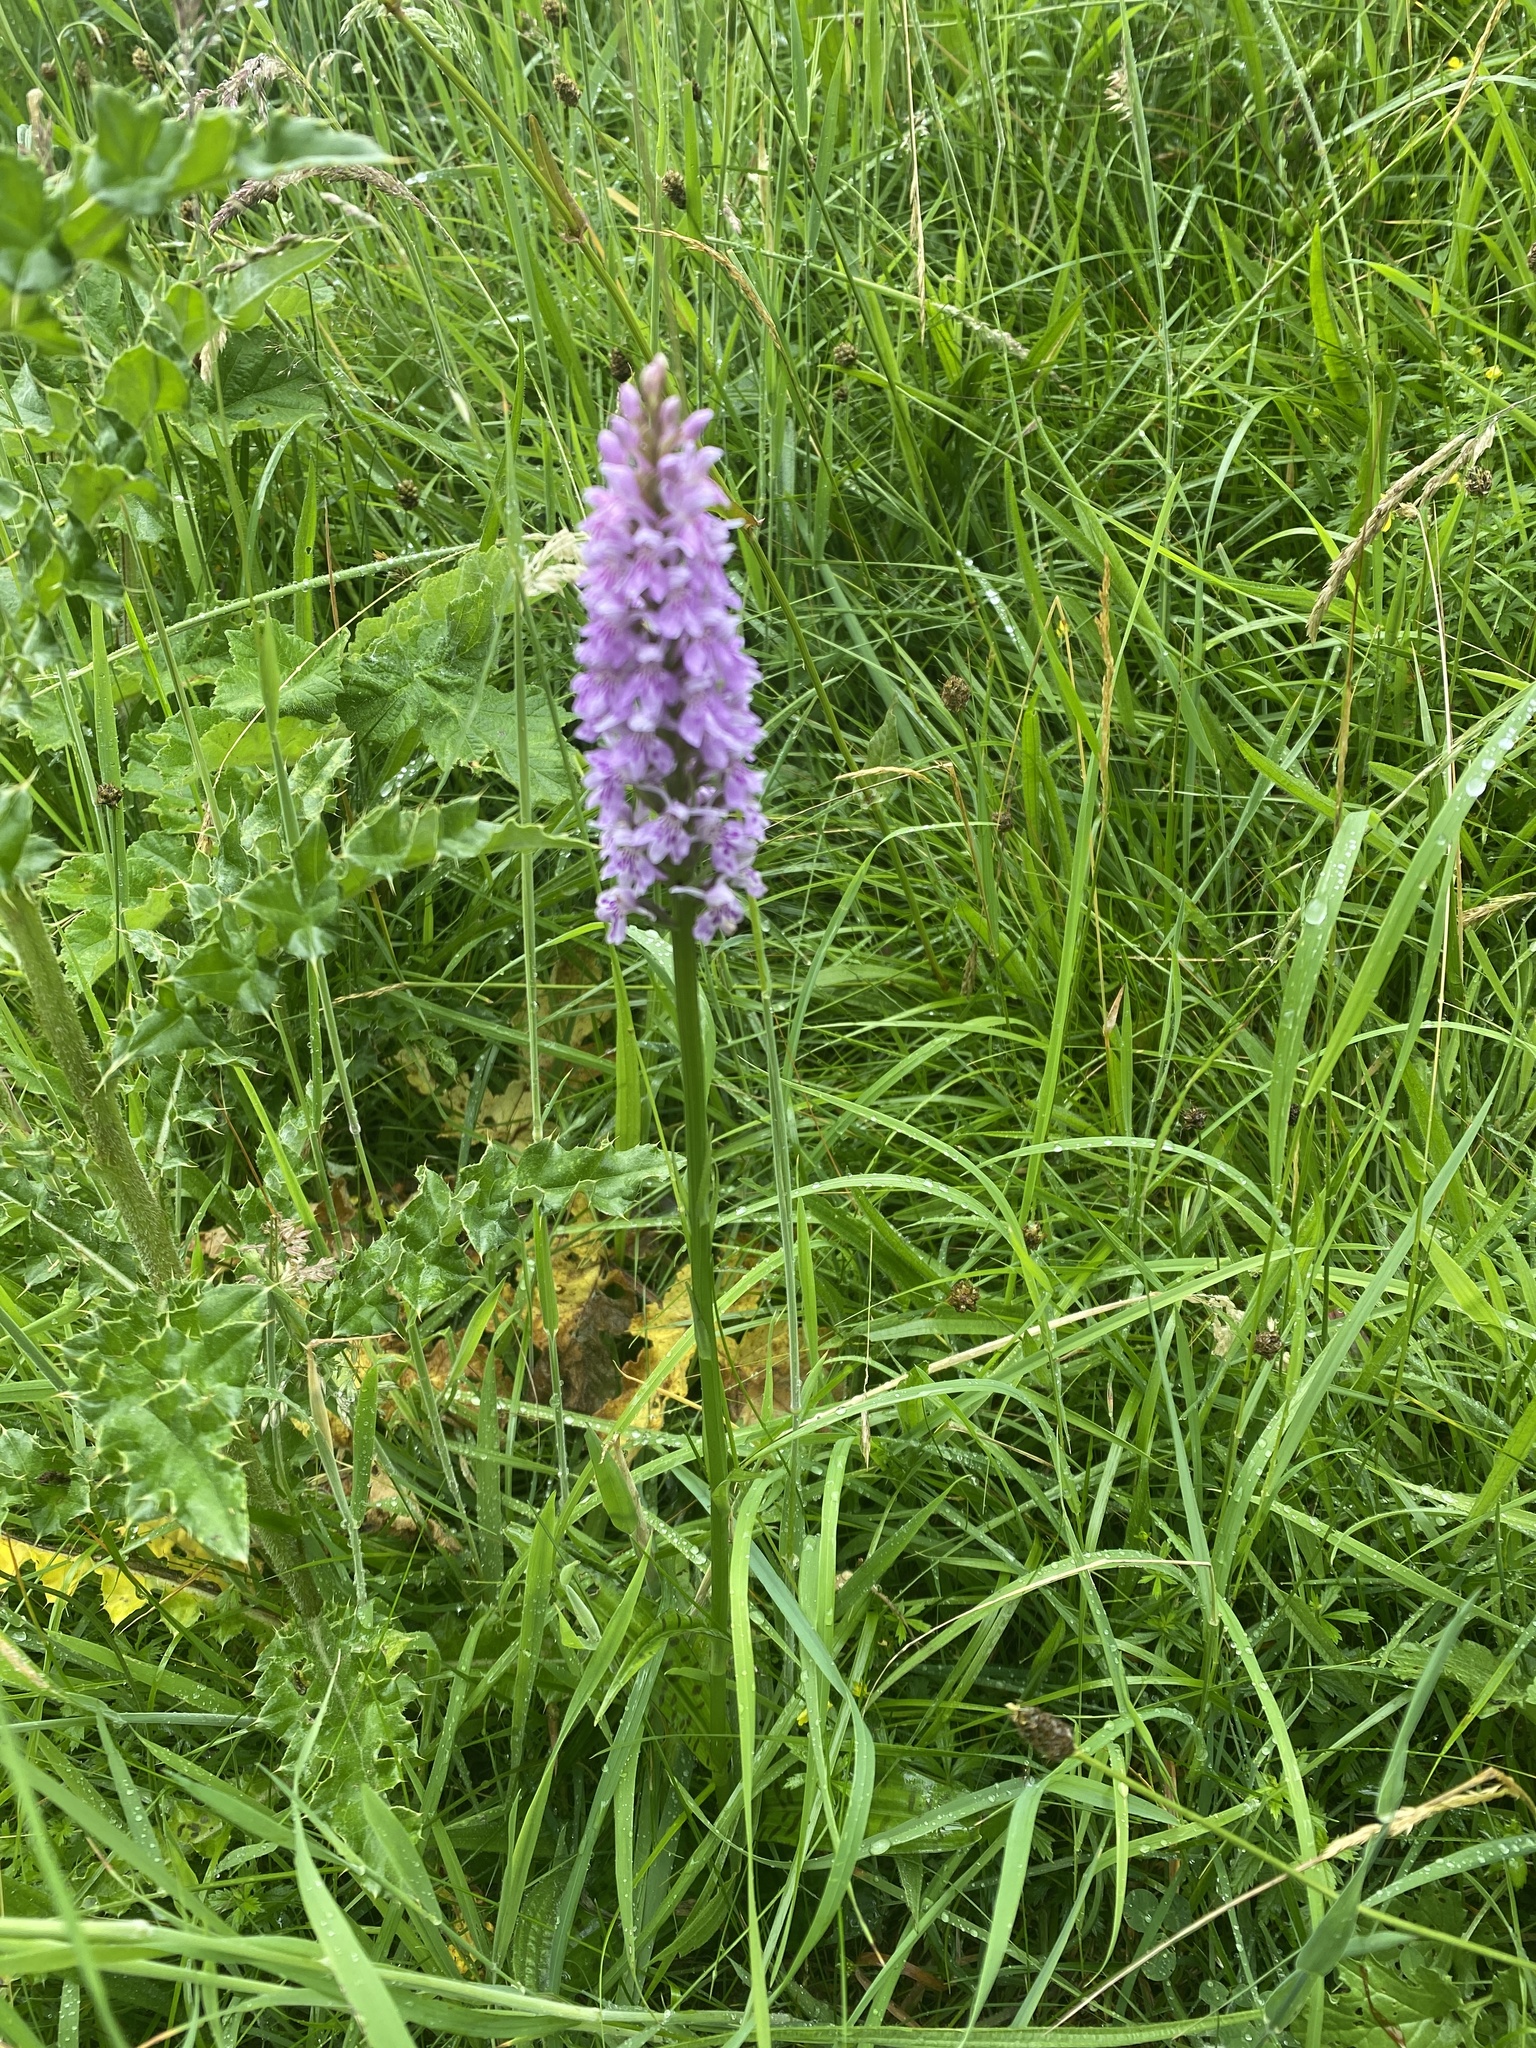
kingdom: Plantae
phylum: Tracheophyta
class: Liliopsida
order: Asparagales
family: Orchidaceae
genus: Dactylorhiza
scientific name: Dactylorhiza maculata
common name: Heath spotted-orchid
